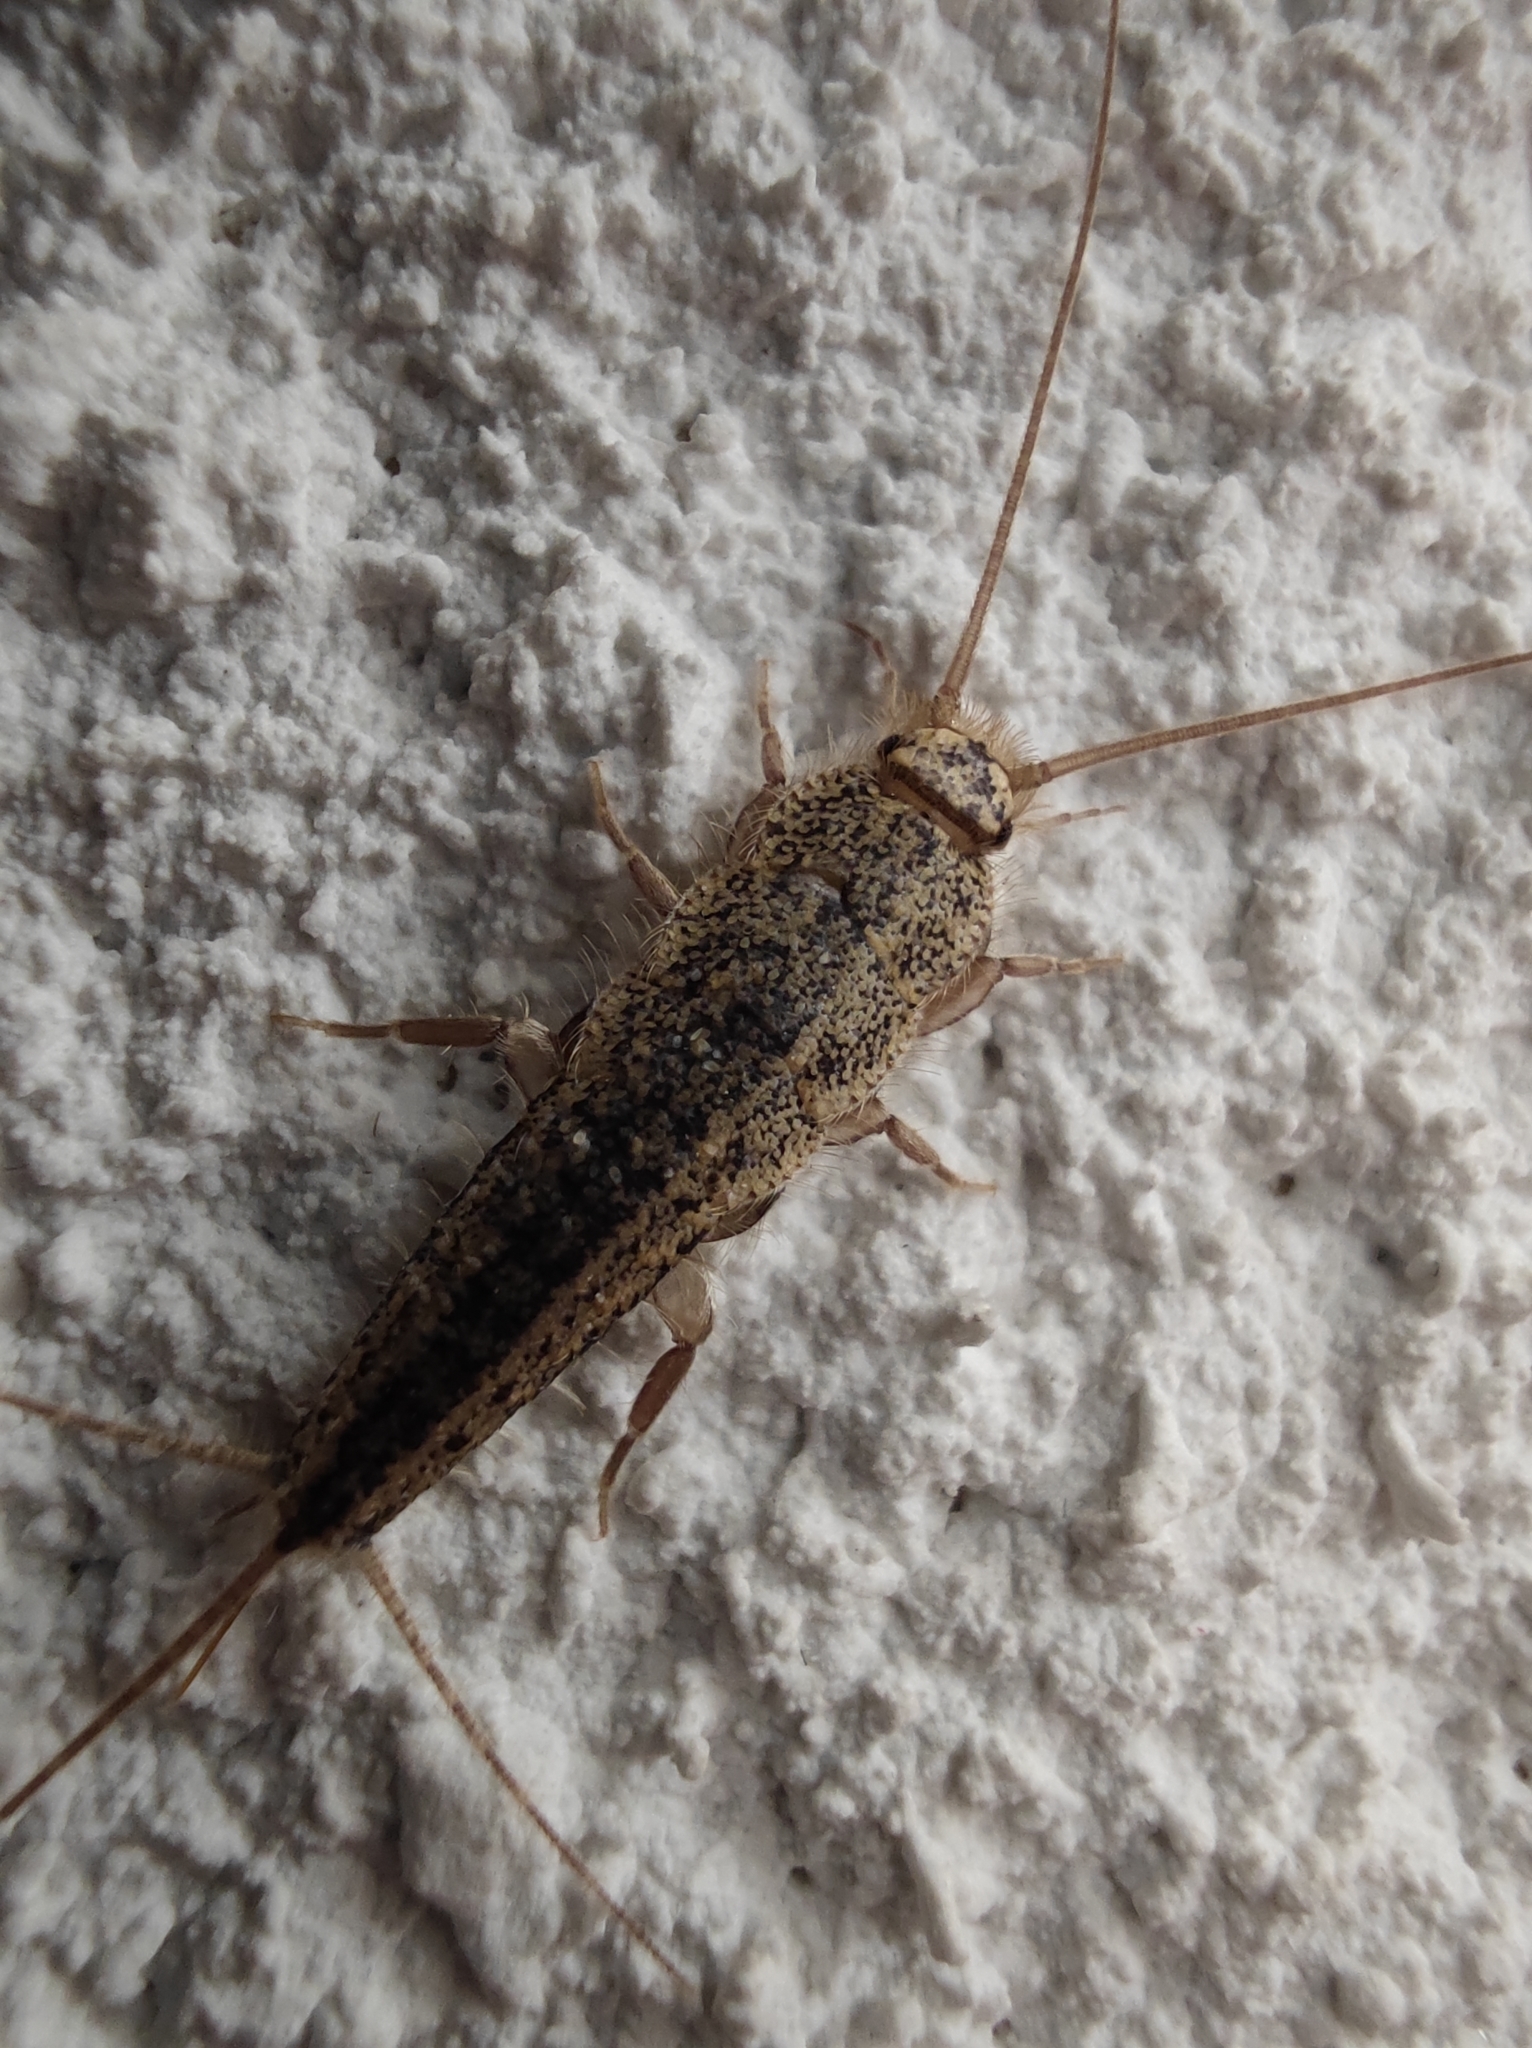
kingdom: Animalia
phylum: Arthropoda
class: Insecta
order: Zygentoma
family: Lepismatidae
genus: Ctenolepisma
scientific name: Ctenolepisma lineata
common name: Four-lined silverfish
